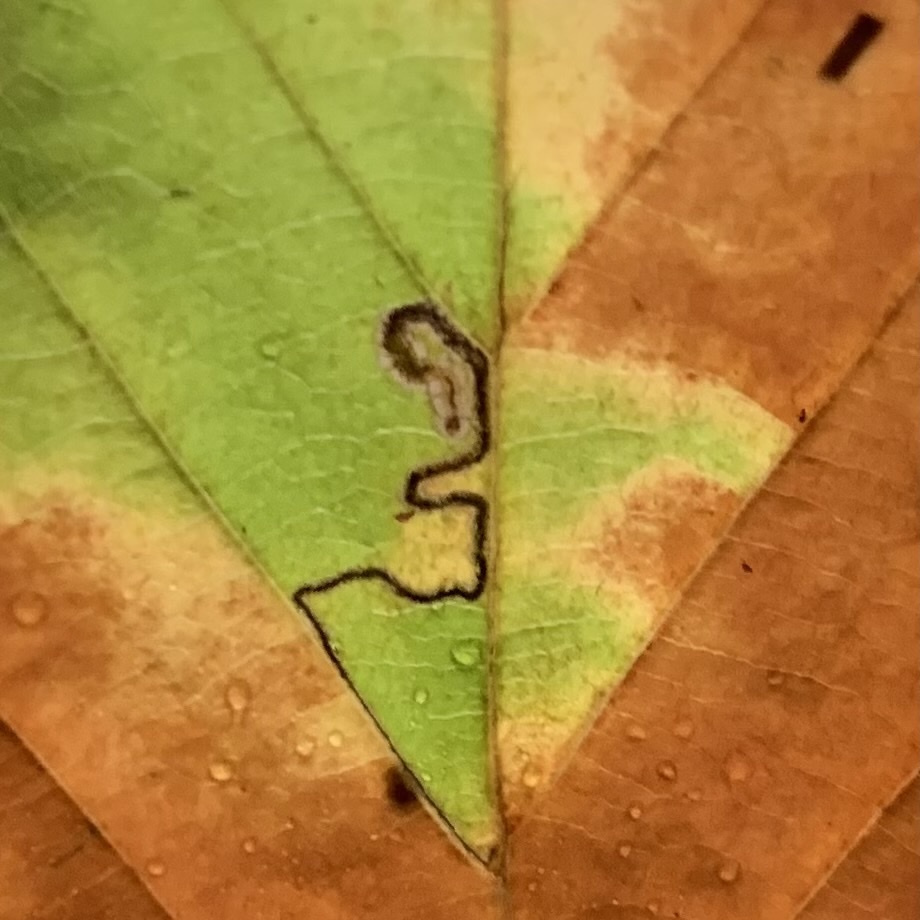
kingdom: Animalia
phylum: Arthropoda
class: Insecta
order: Lepidoptera
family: Nepticulidae
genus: Stigmella
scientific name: Stigmella tityrella
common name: Small beech pigmy
